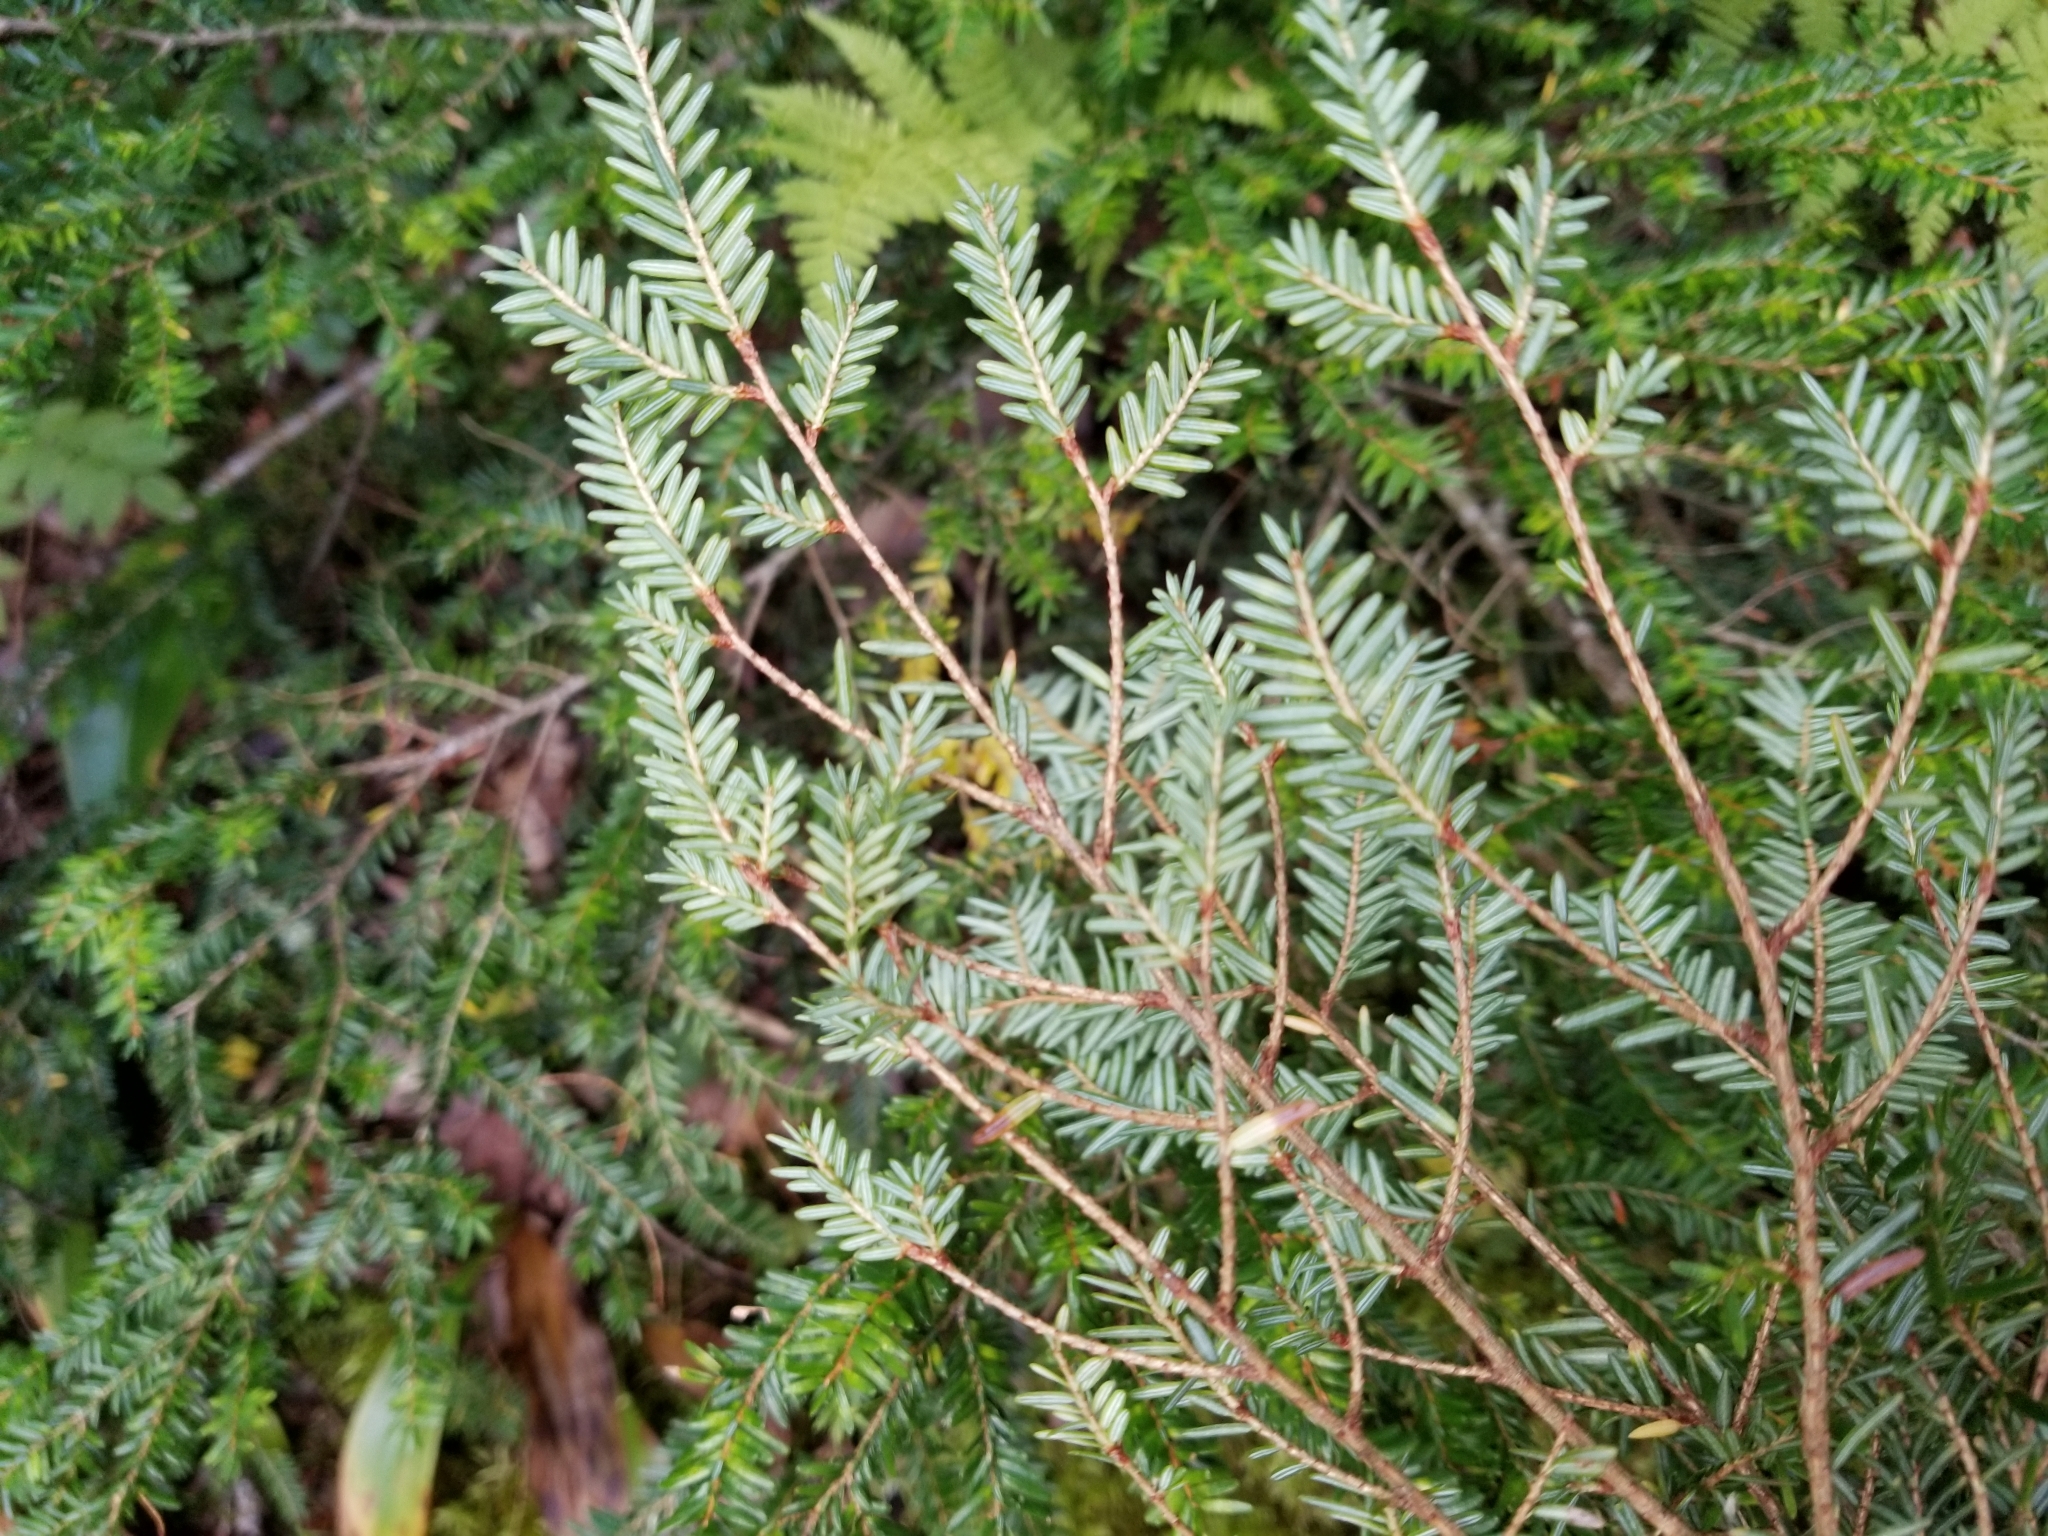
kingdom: Plantae
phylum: Tracheophyta
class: Pinopsida
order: Pinales
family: Pinaceae
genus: Tsuga
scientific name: Tsuga canadensis
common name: Eastern hemlock
